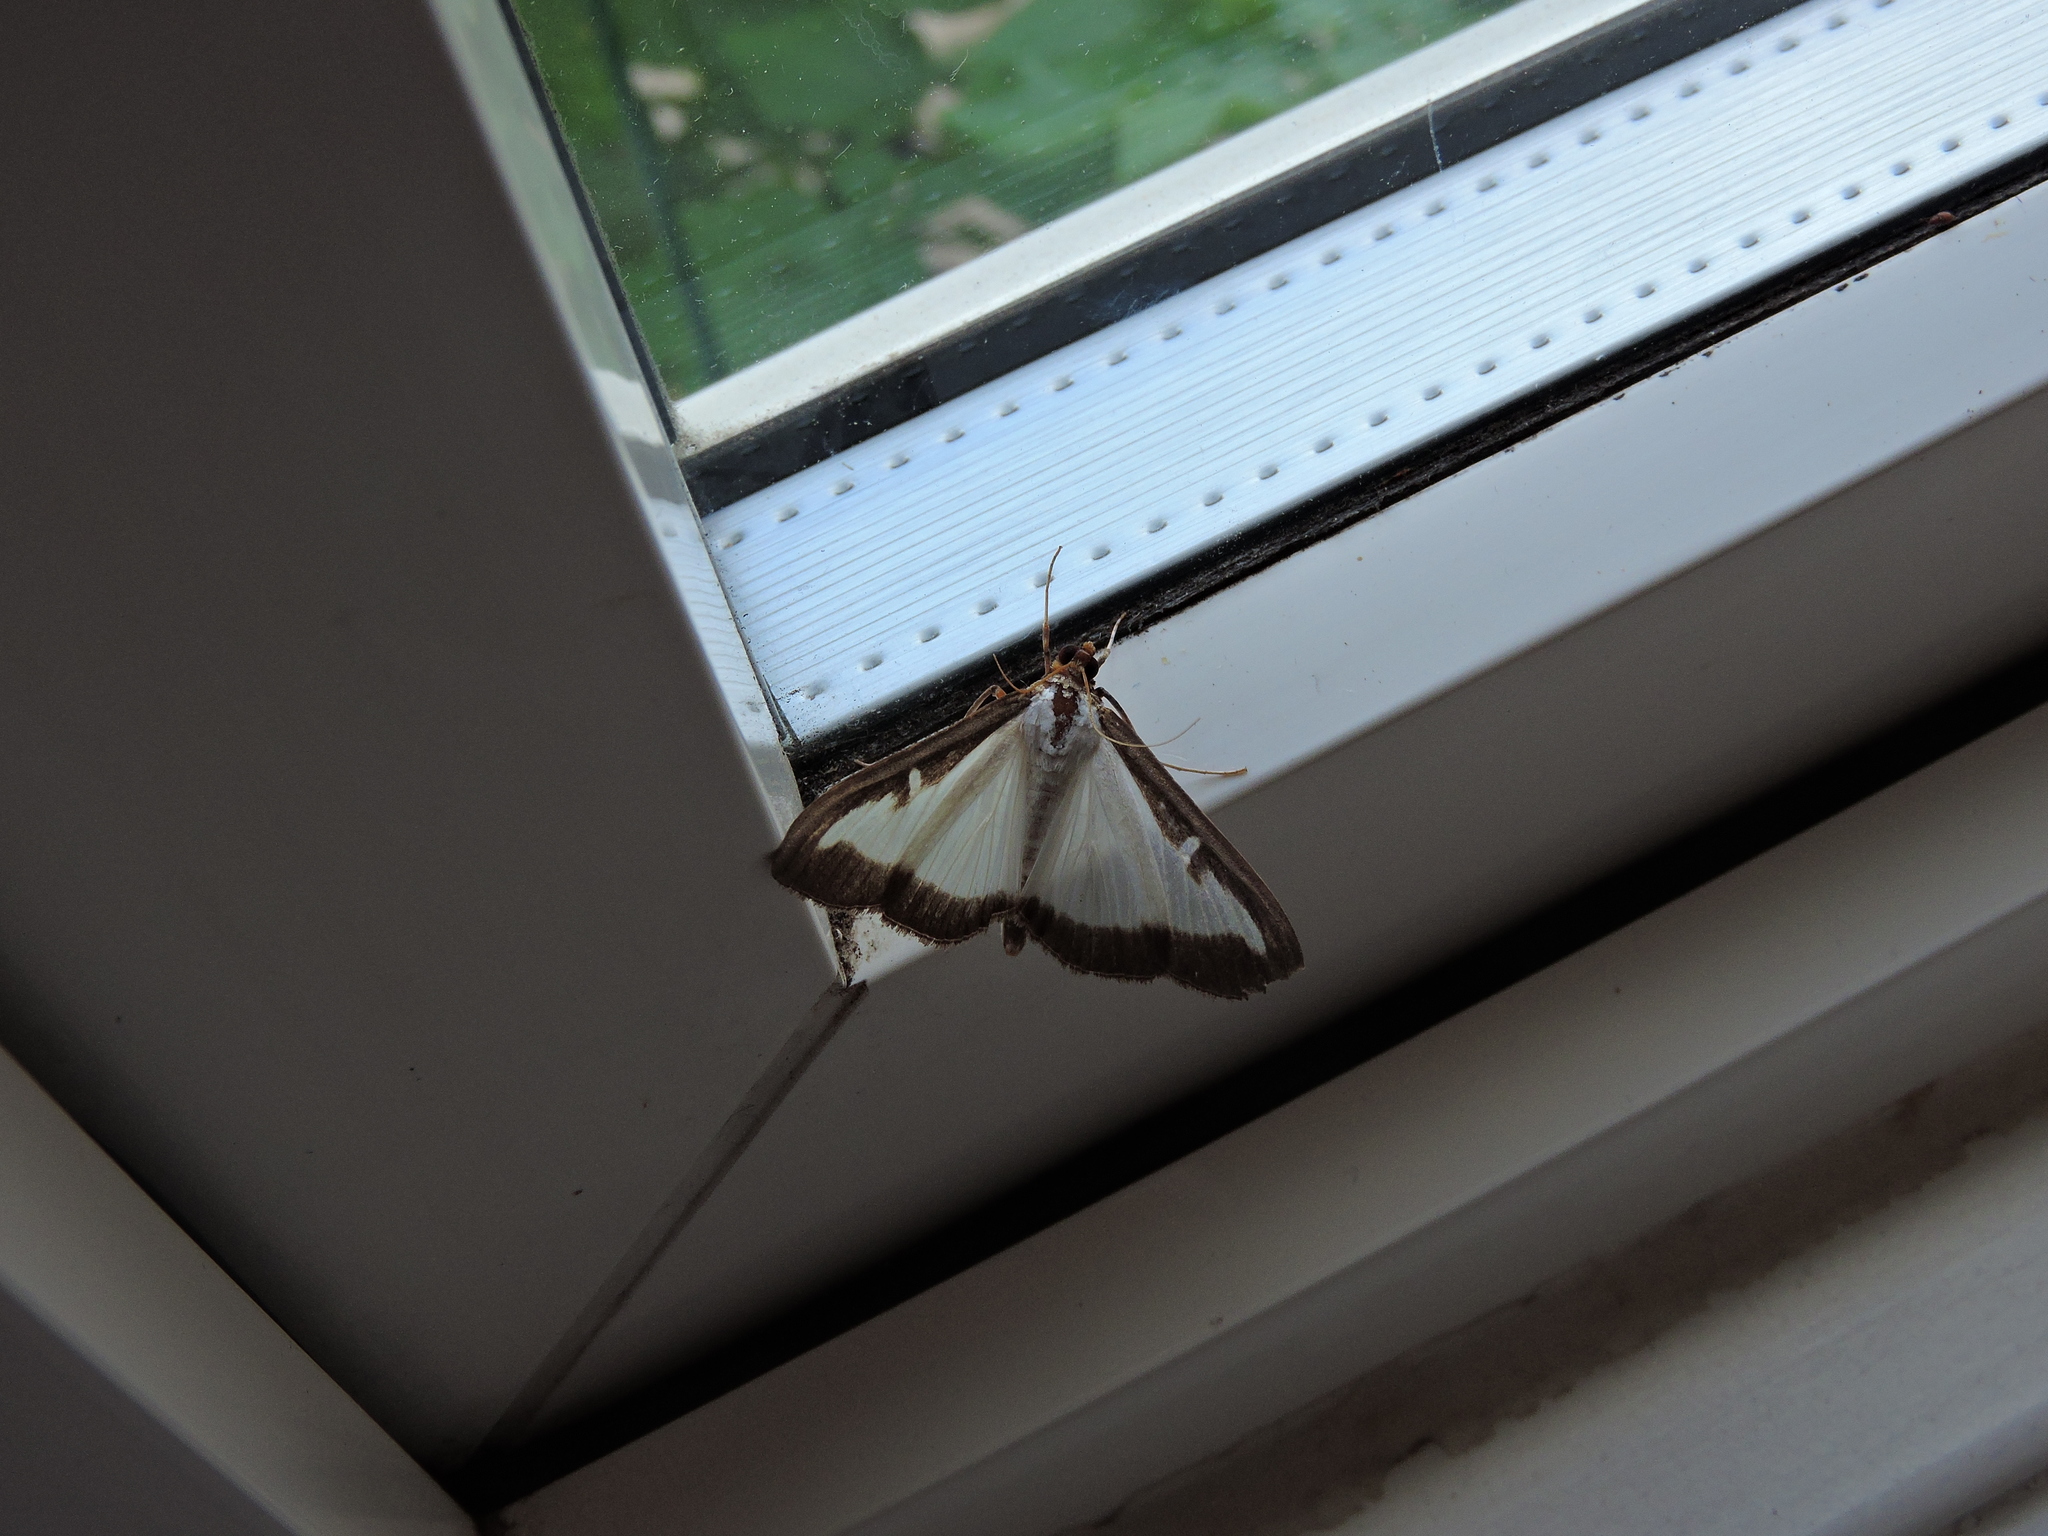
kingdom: Animalia
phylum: Arthropoda
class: Insecta
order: Lepidoptera
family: Crambidae
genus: Cydalima
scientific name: Cydalima perspectalis
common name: Box tree moth
